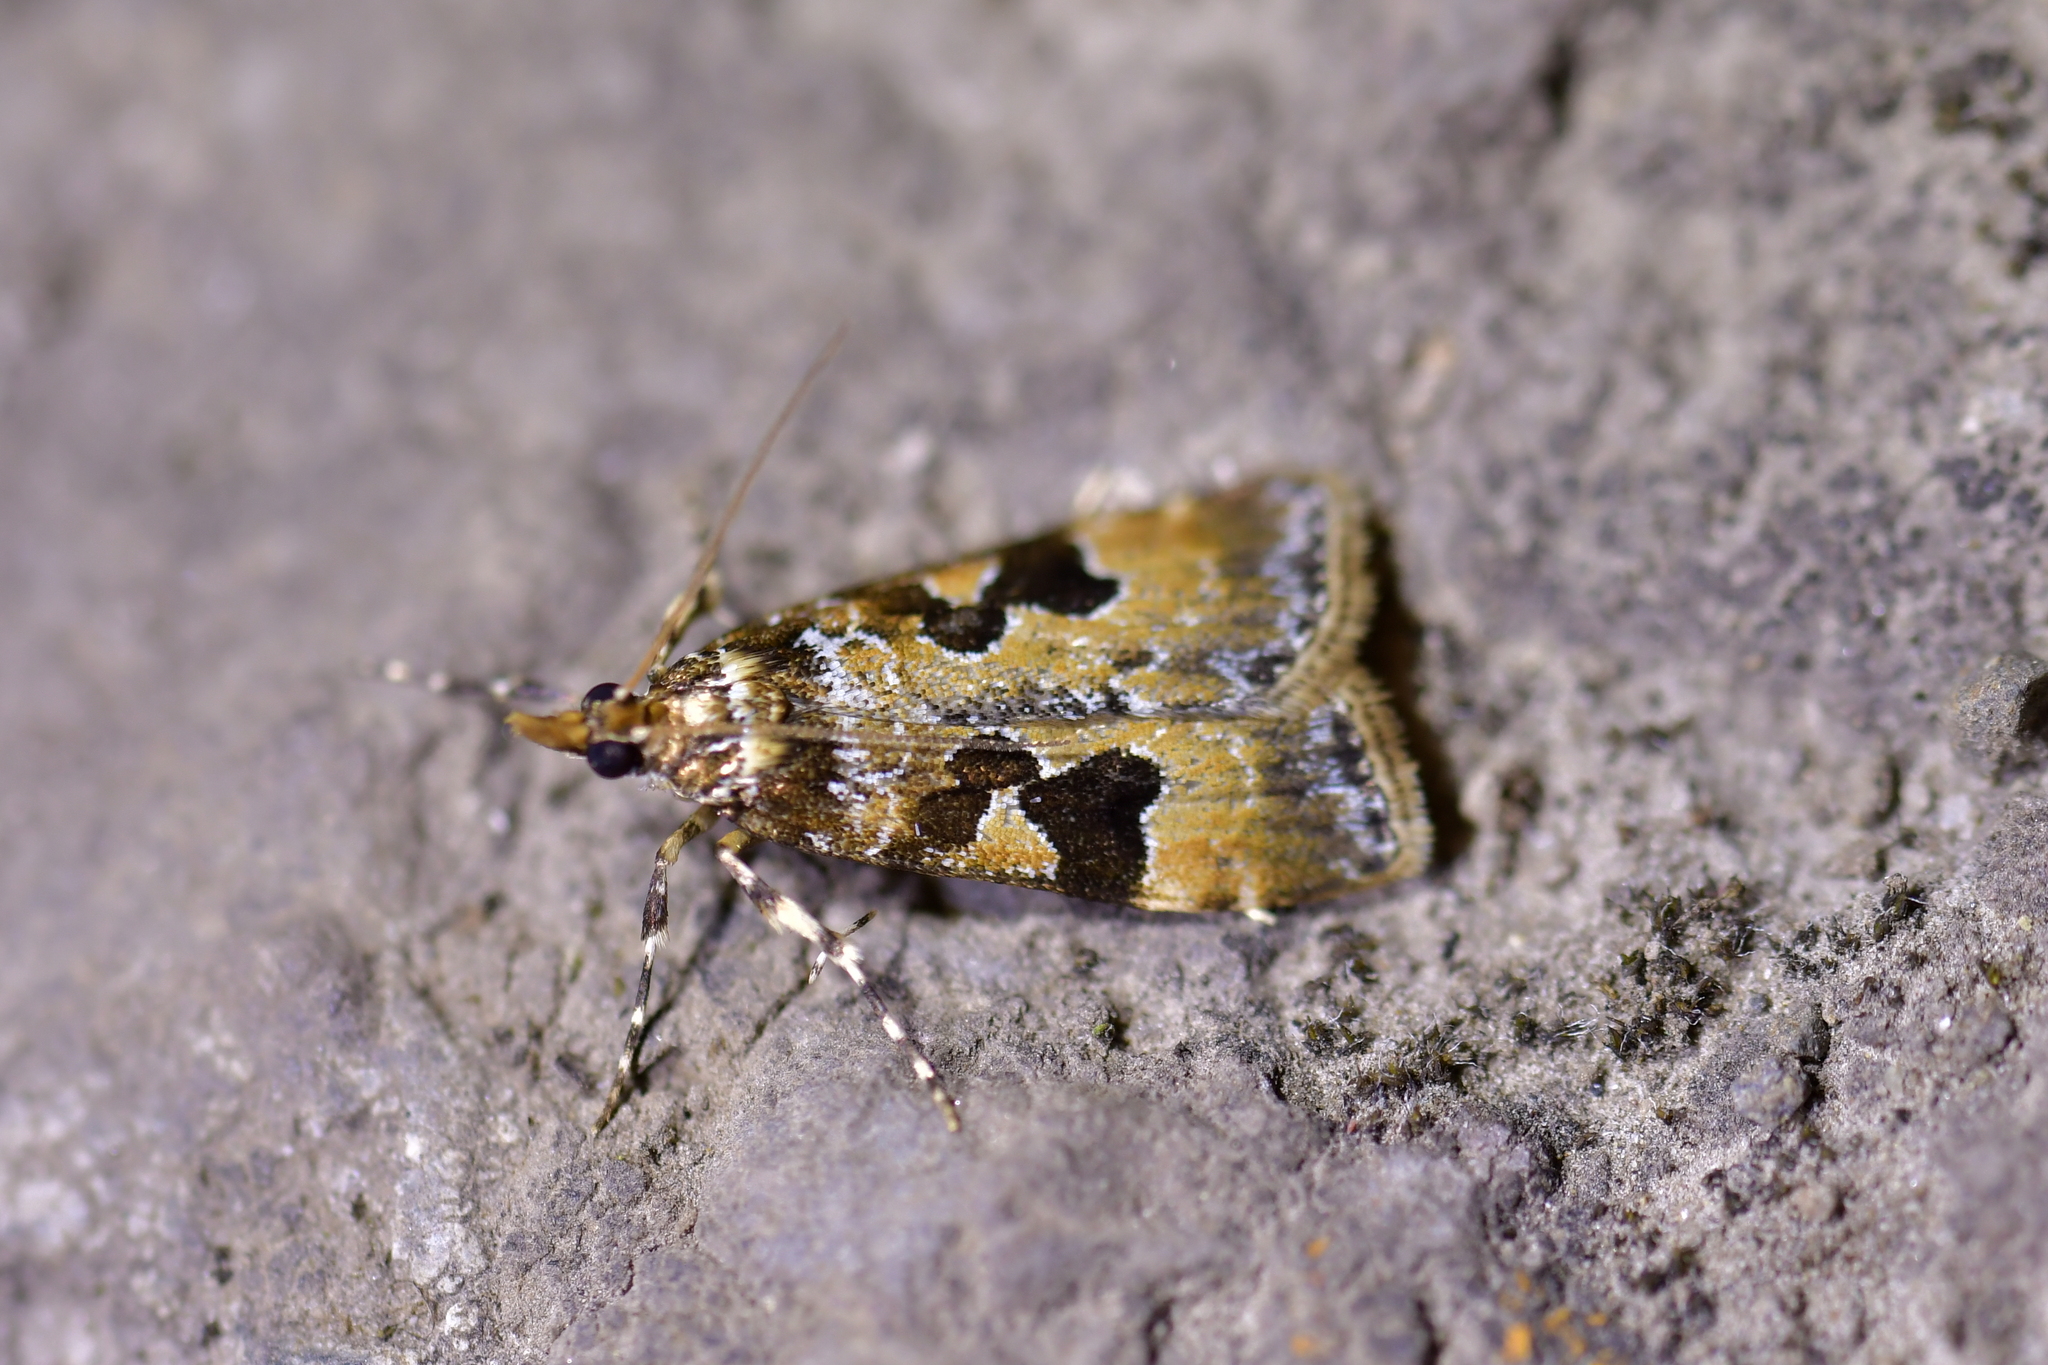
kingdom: Animalia
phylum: Arthropoda
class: Insecta
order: Lepidoptera
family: Crambidae
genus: Scoparia
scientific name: Scoparia ustimacula
